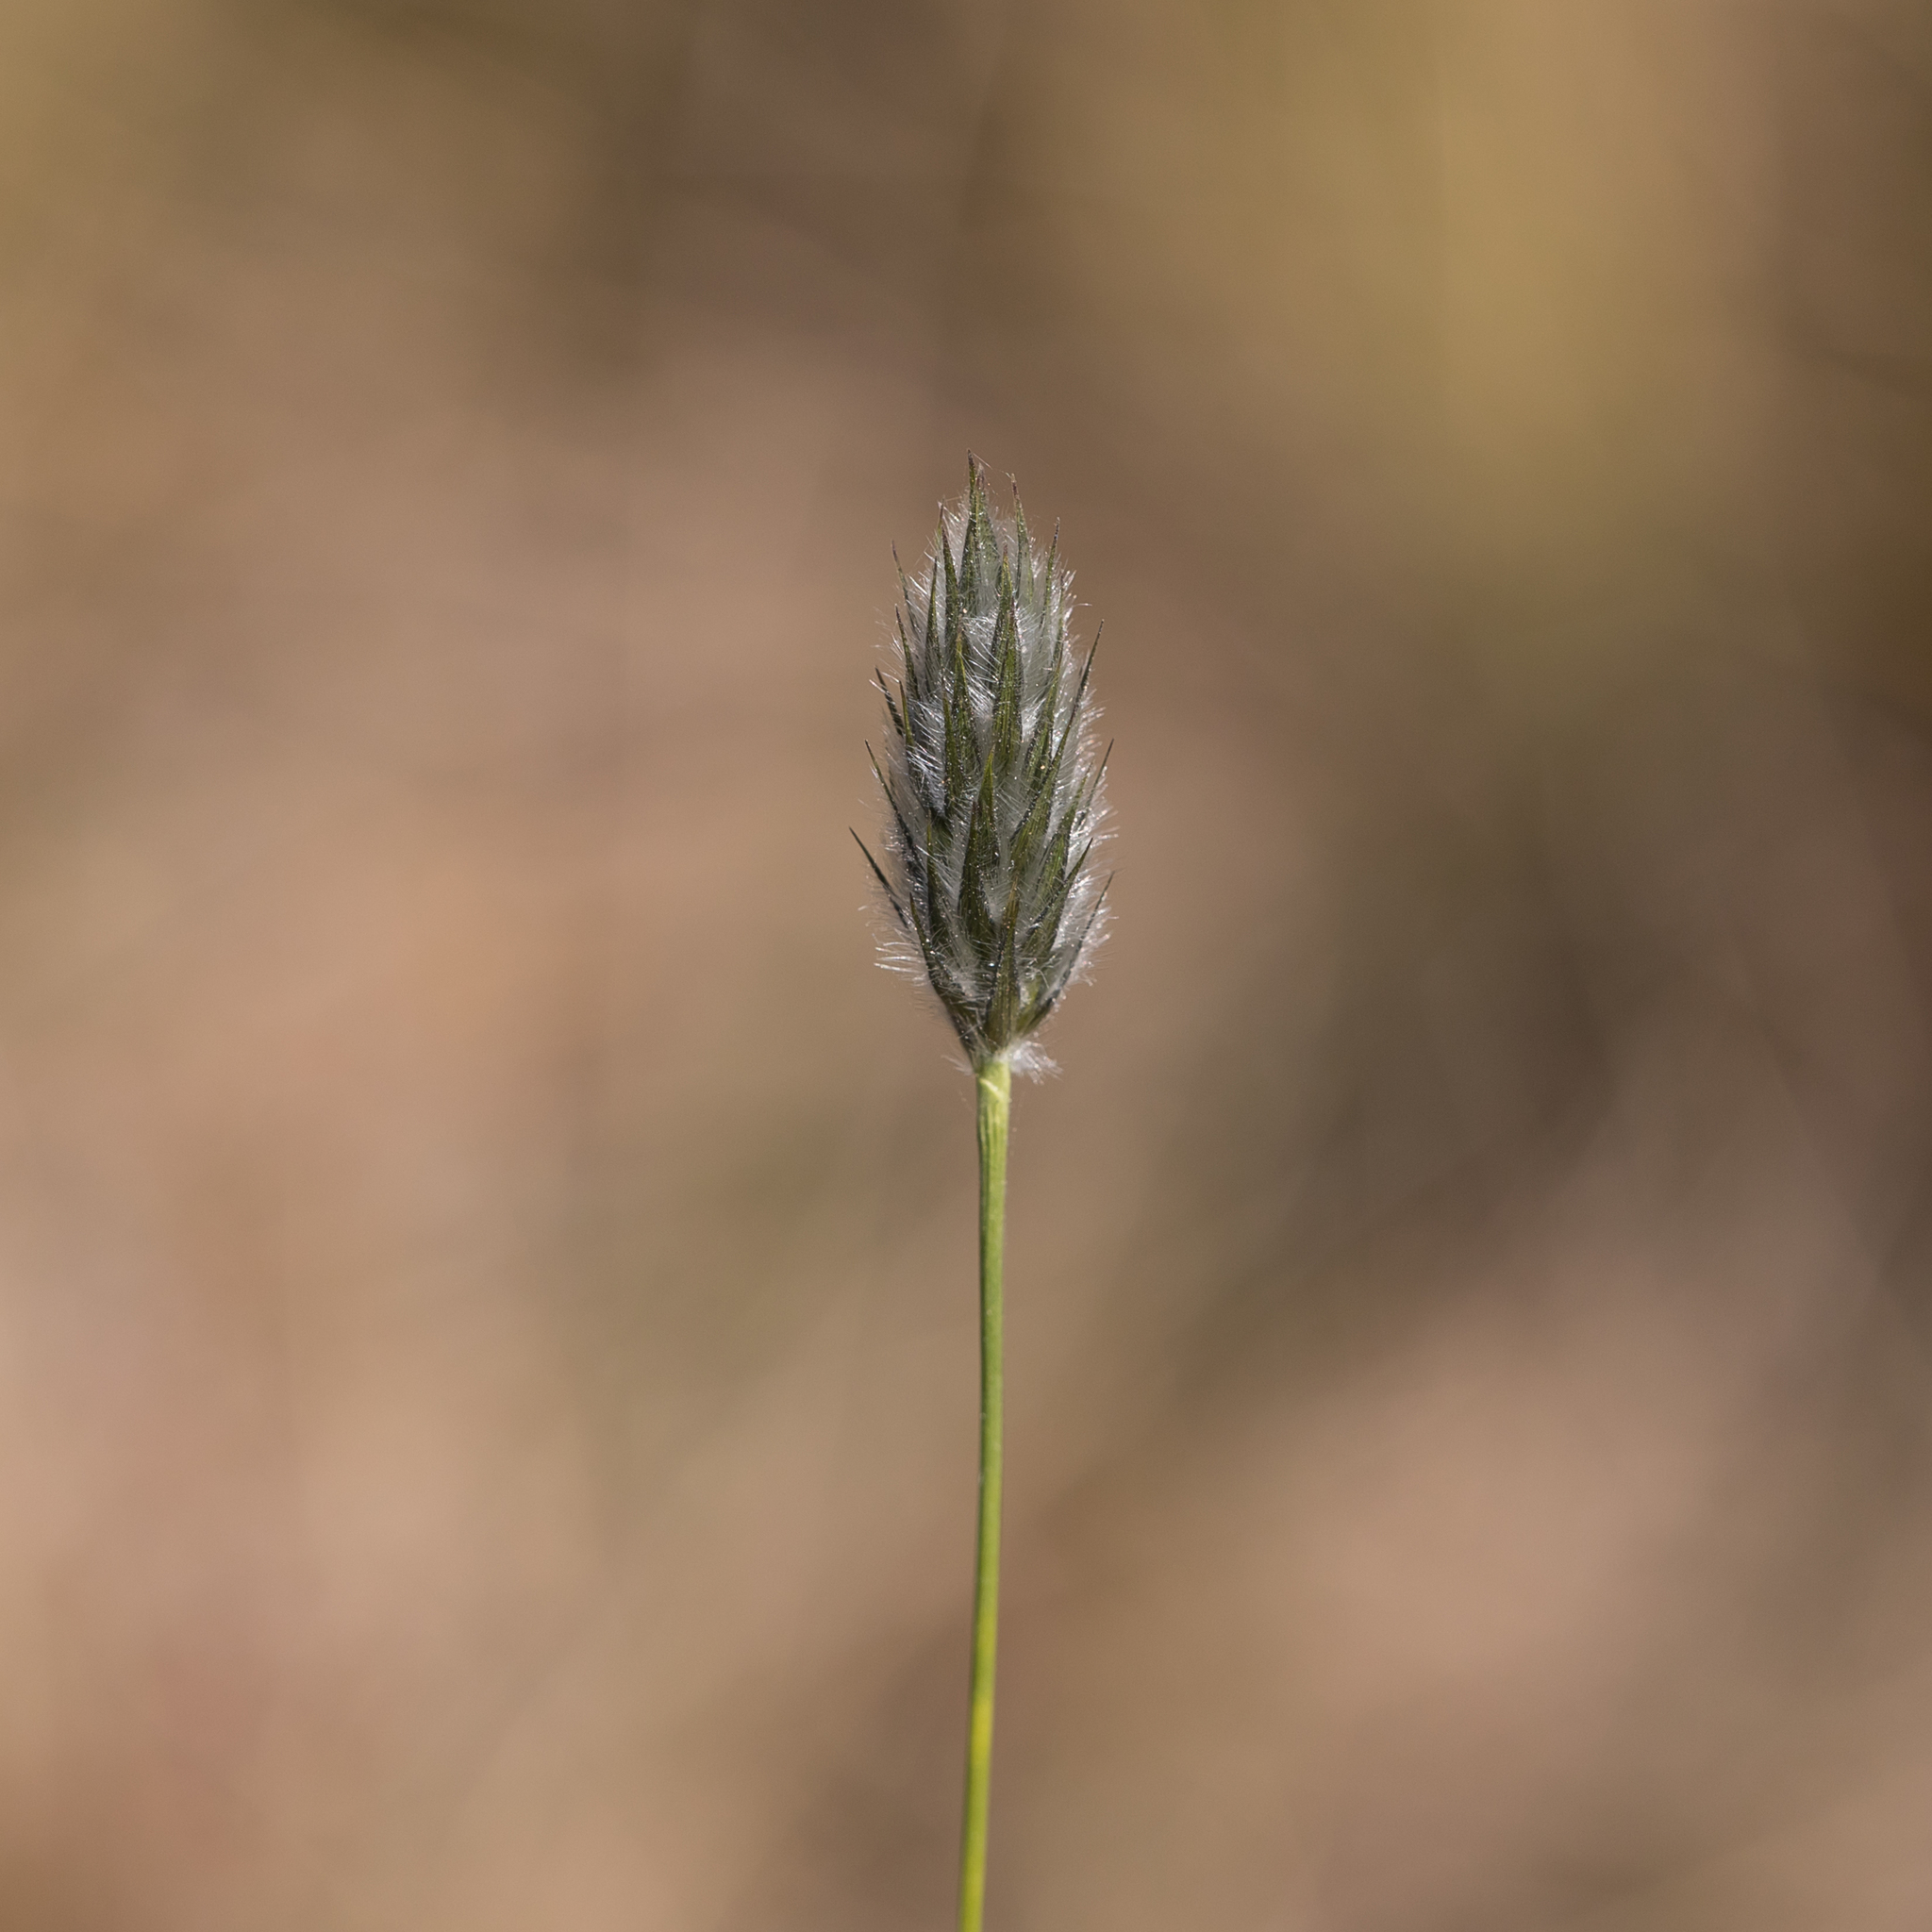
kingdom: Plantae
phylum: Tracheophyta
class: Liliopsida
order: Poales
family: Poaceae
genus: Neurachne
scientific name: Neurachne alopecuroidea
